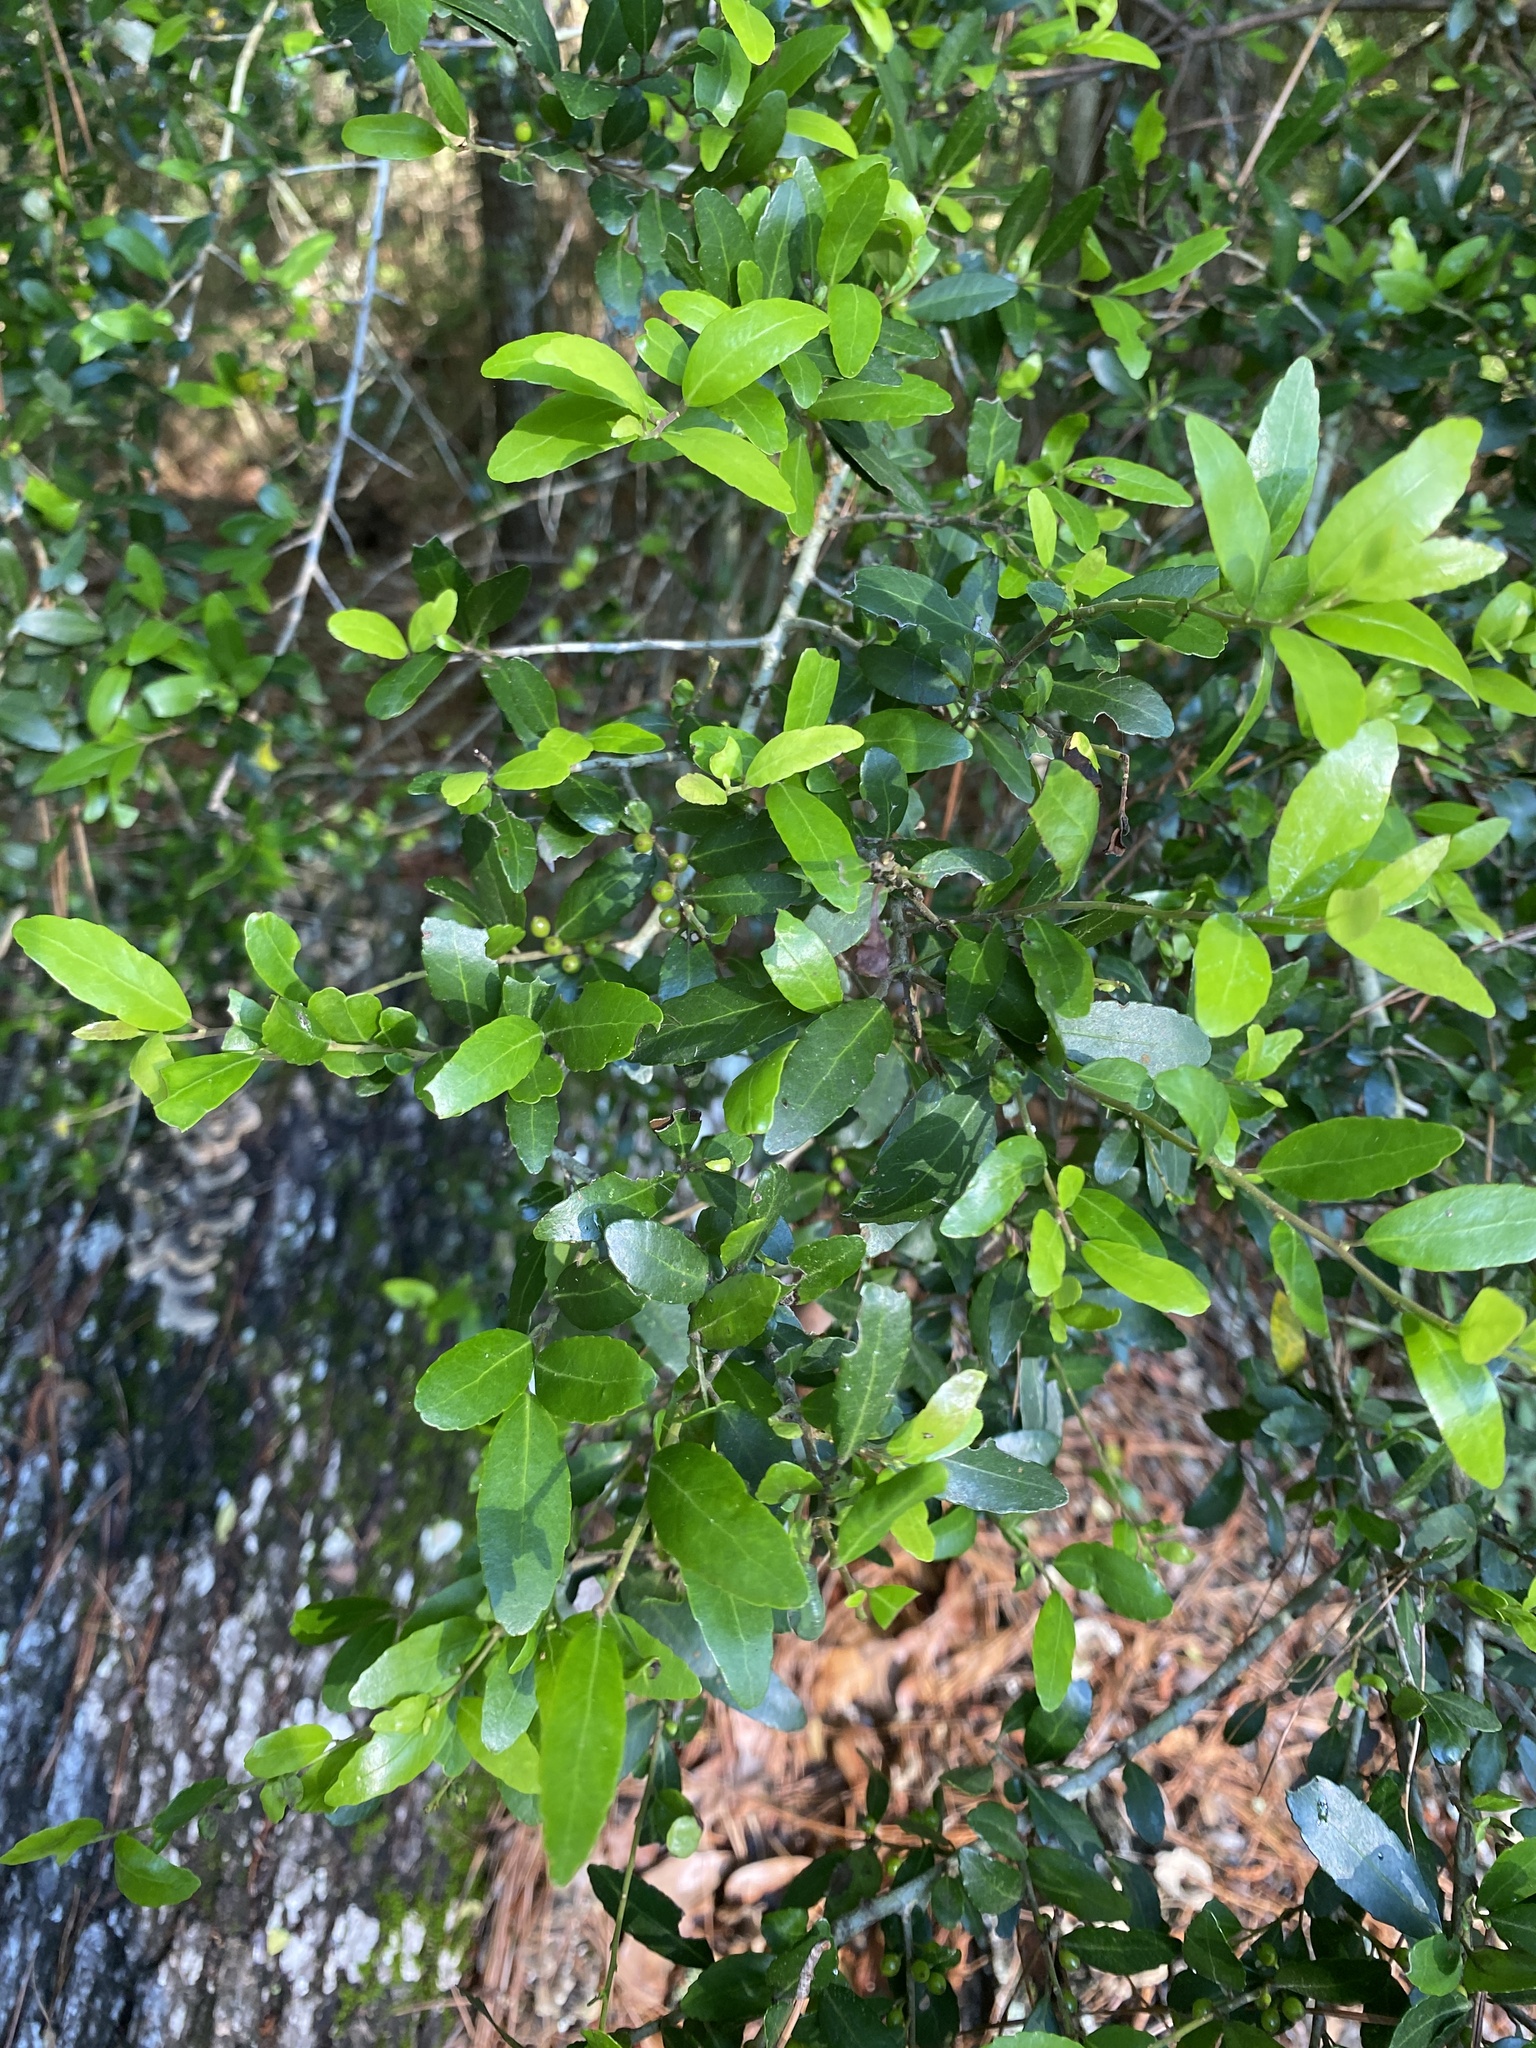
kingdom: Plantae
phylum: Tracheophyta
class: Magnoliopsida
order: Aquifoliales
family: Aquifoliaceae
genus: Ilex
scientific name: Ilex vomitoria
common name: Yaupon holly
